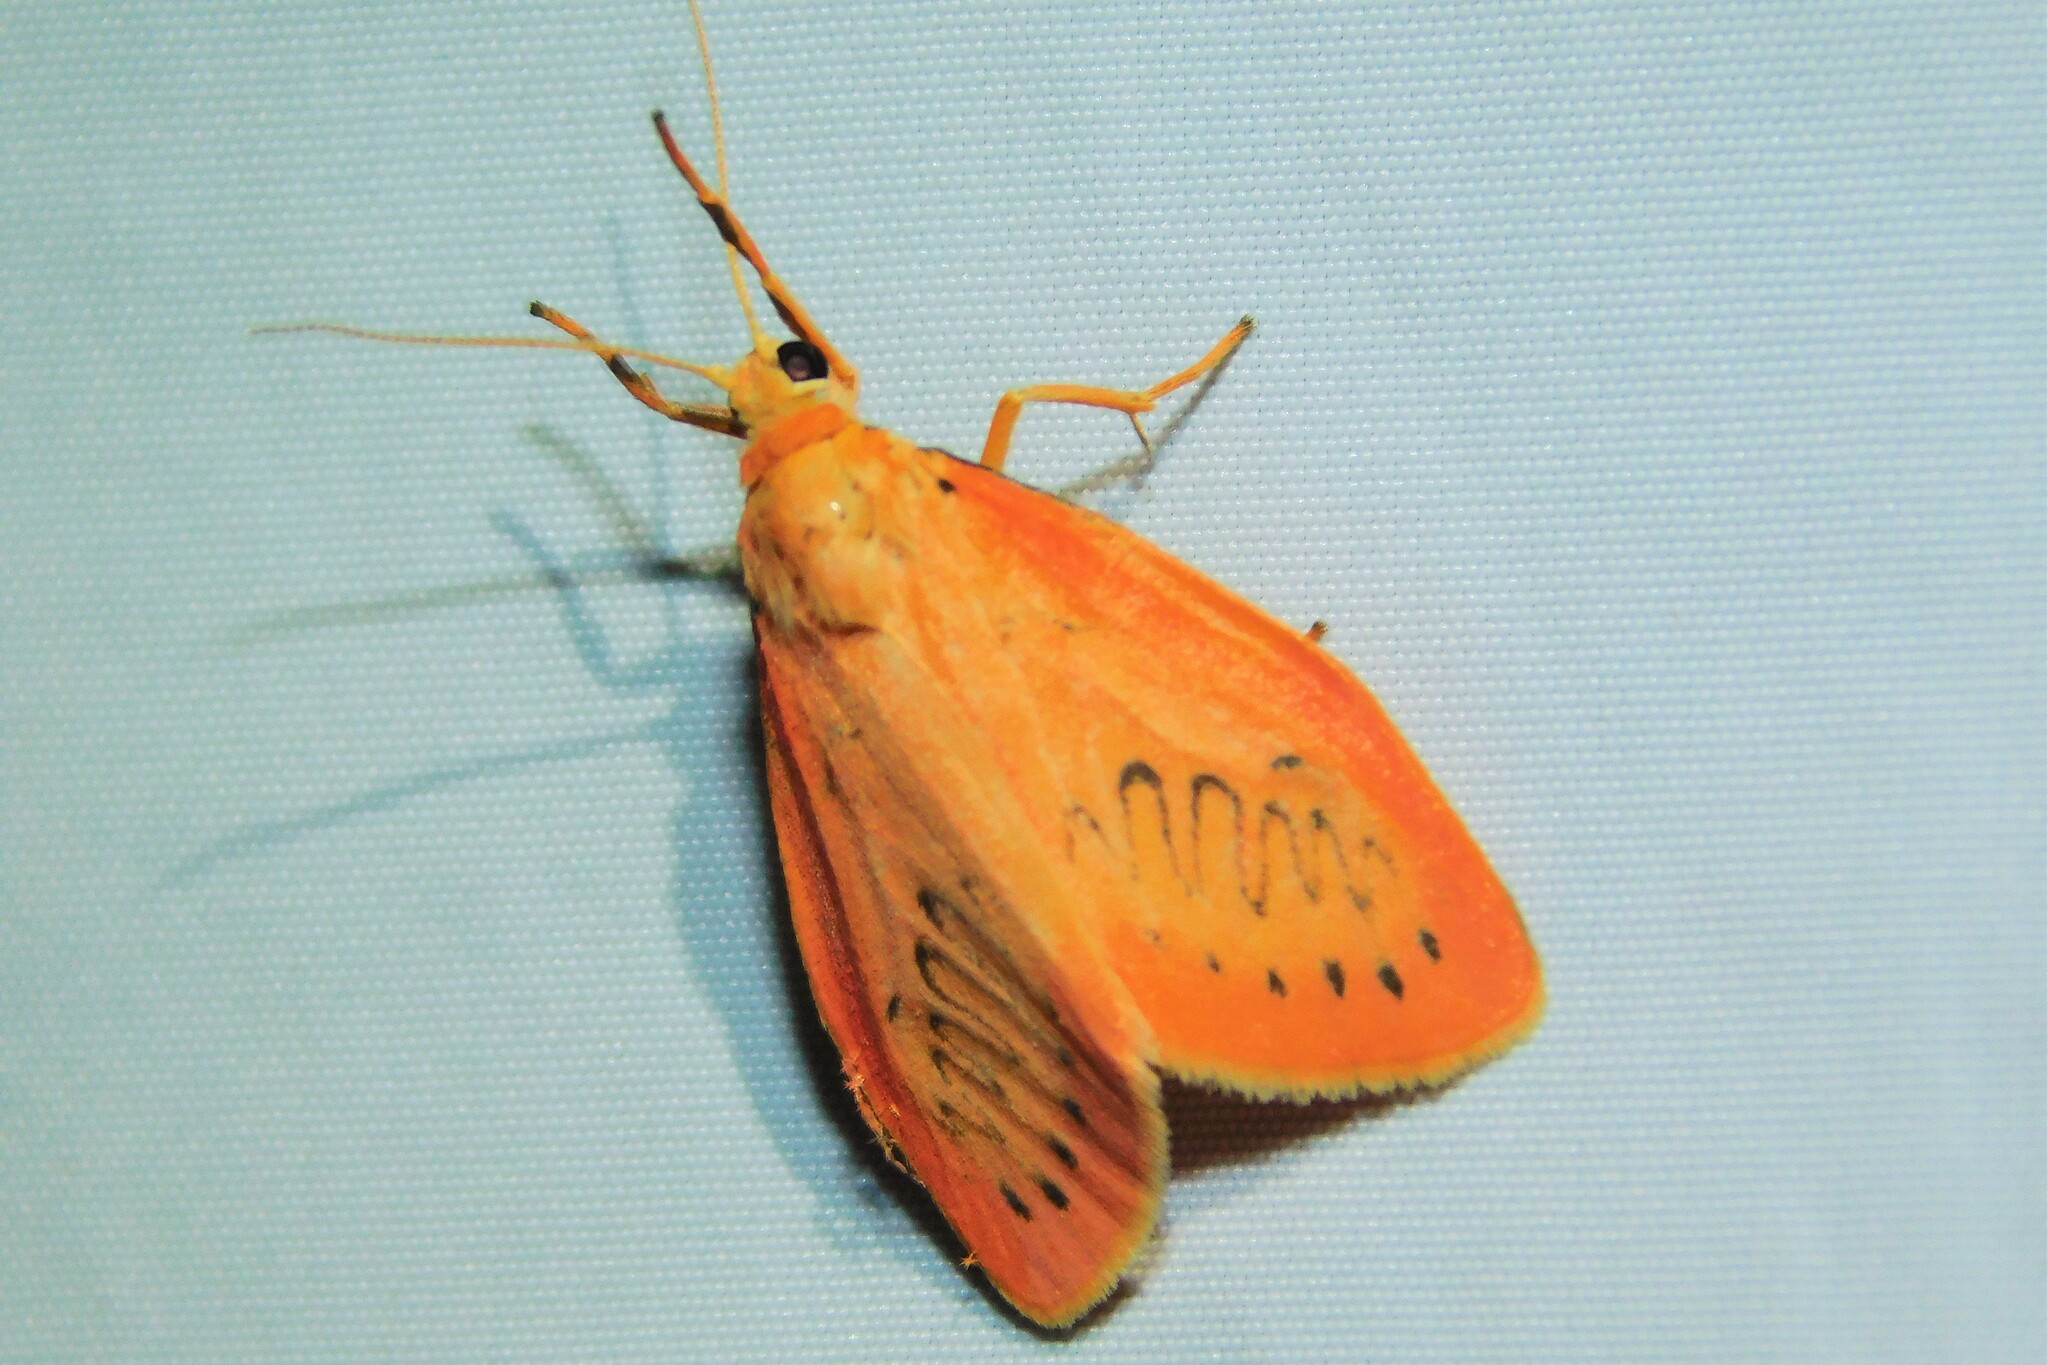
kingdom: Animalia
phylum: Arthropoda
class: Insecta
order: Lepidoptera
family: Erebidae
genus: Miltochrista
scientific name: Miltochrista miniata
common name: Rosy footman
